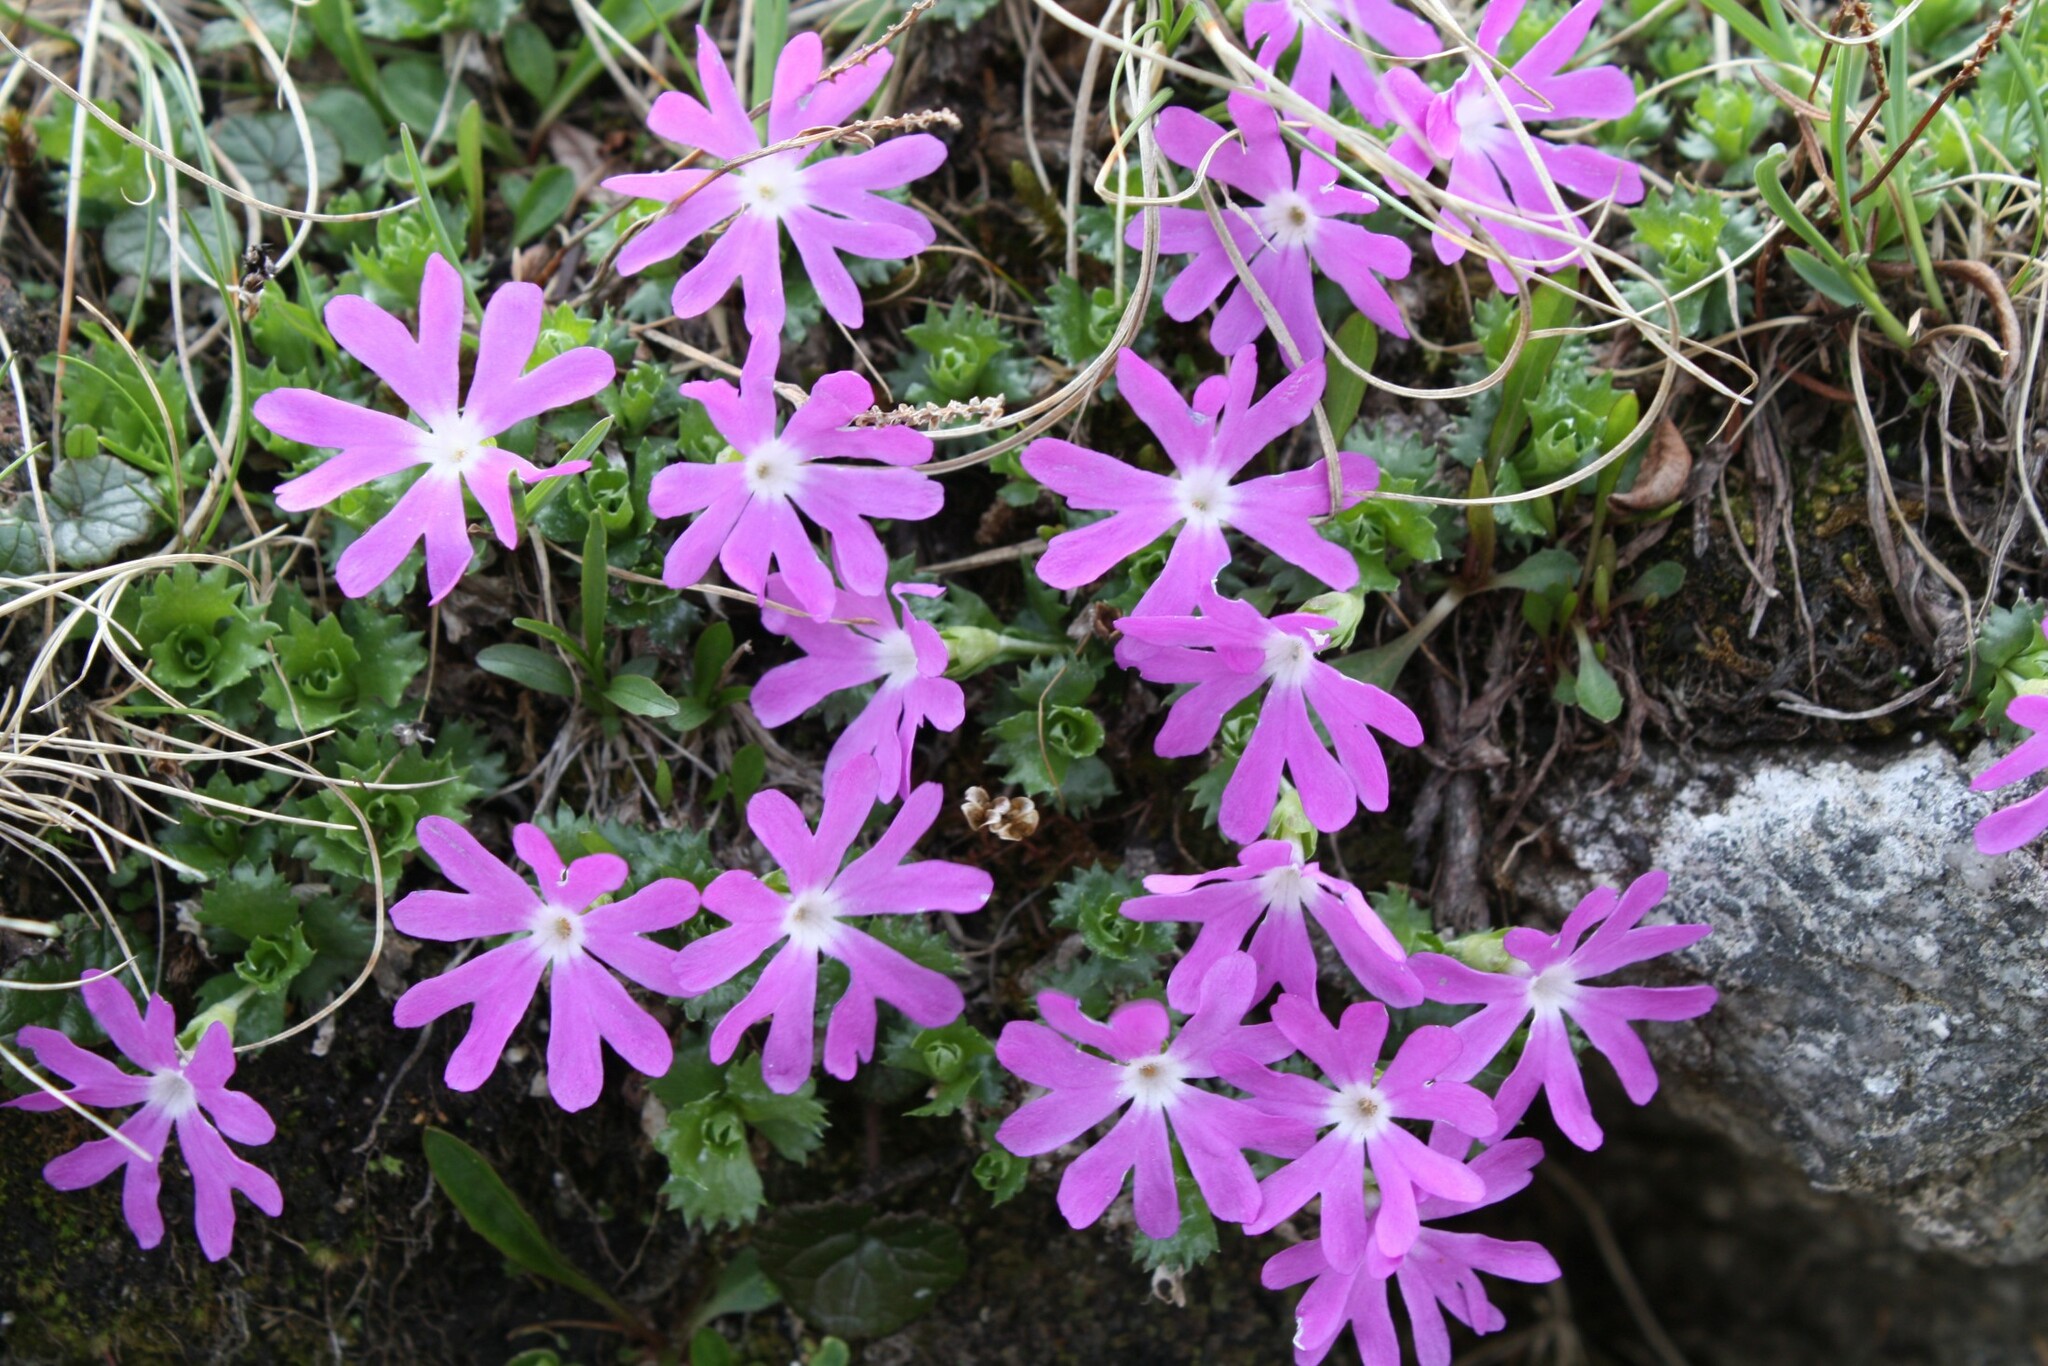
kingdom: Plantae
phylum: Tracheophyta
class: Magnoliopsida
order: Ericales
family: Primulaceae
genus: Primula
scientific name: Primula minima
